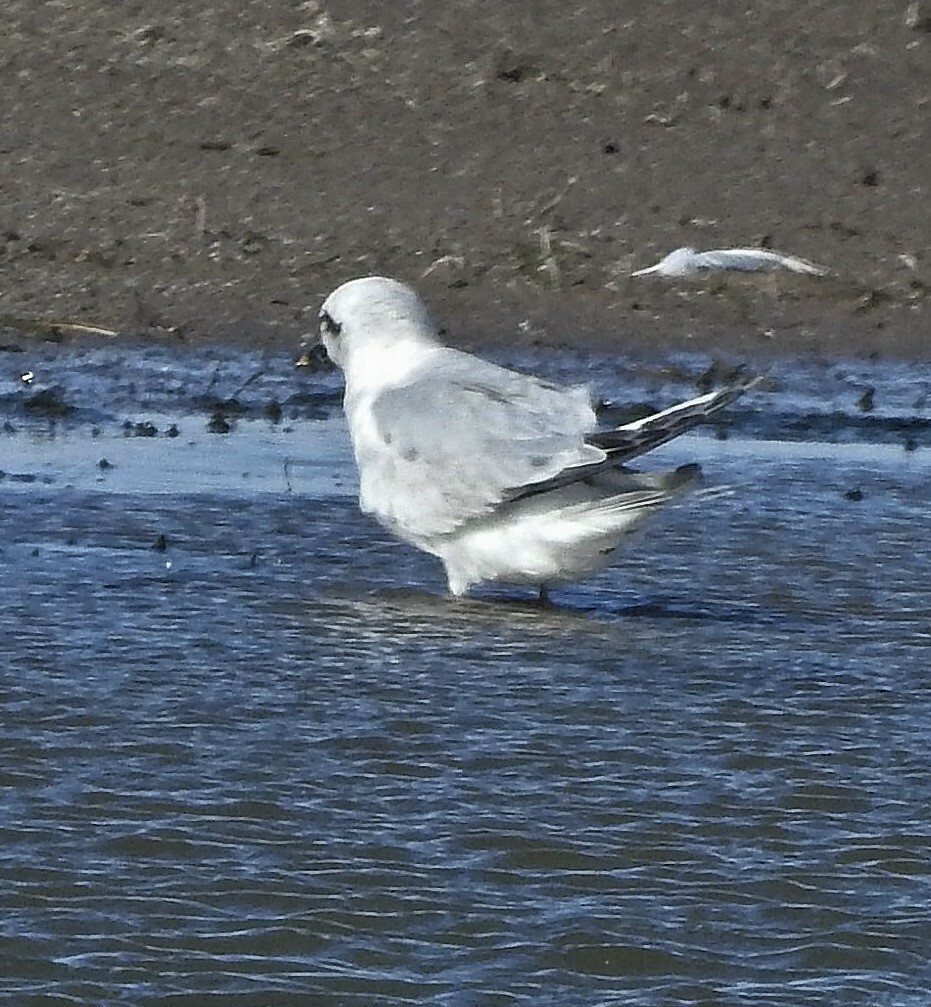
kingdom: Animalia
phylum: Chordata
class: Aves
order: Charadriiformes
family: Laridae
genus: Sterna
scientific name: Sterna trudeaui
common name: Snowy-crowned tern
